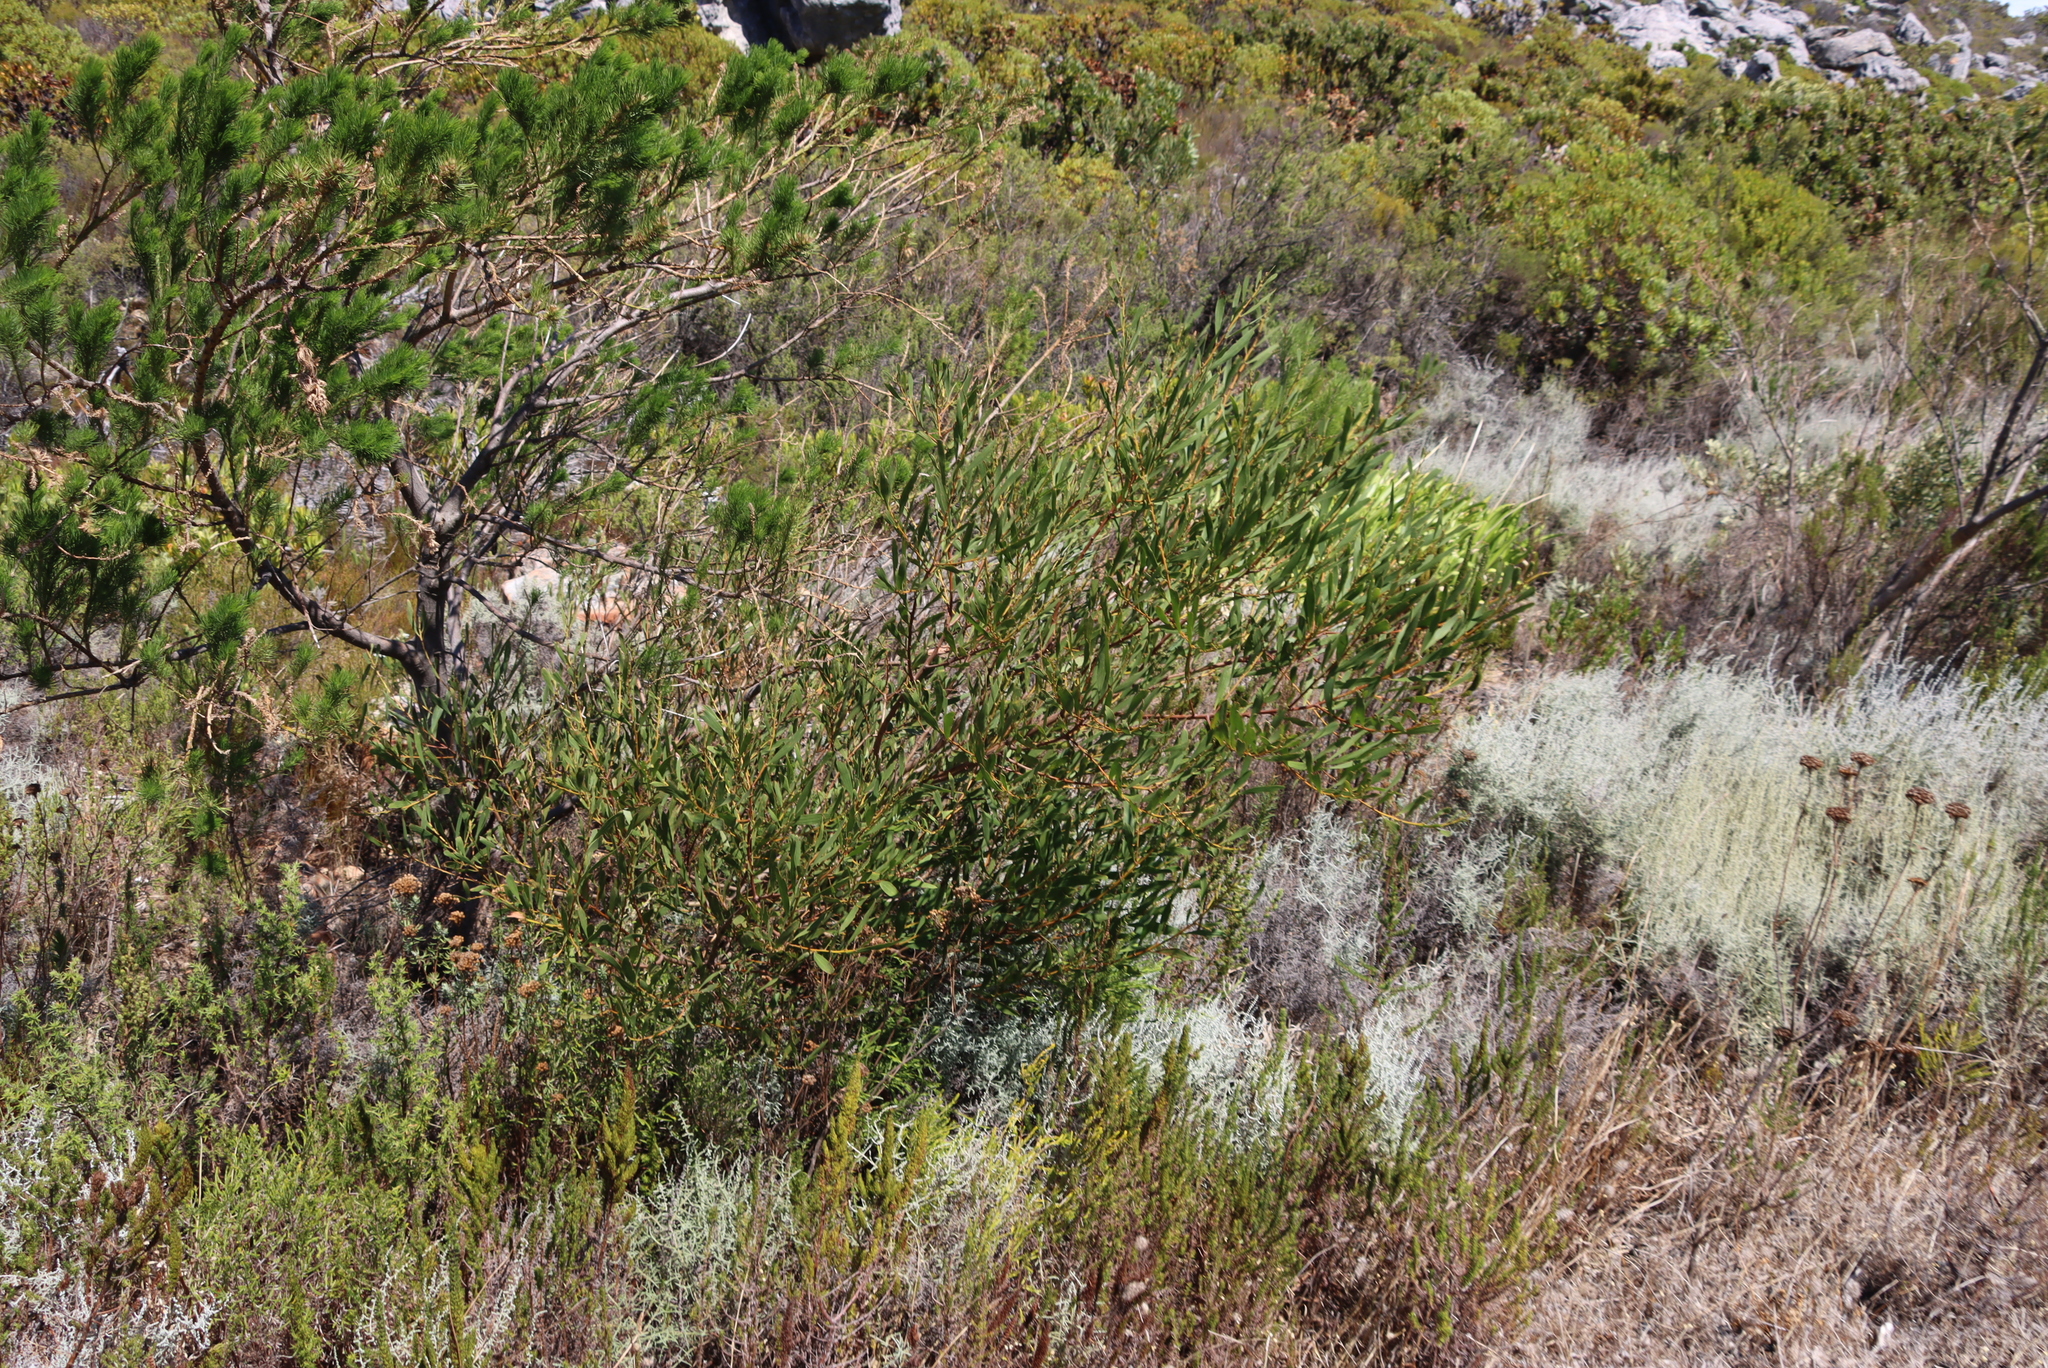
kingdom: Plantae
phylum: Tracheophyta
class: Magnoliopsida
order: Fabales
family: Fabaceae
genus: Acacia
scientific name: Acacia longifolia
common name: Sydney golden wattle
